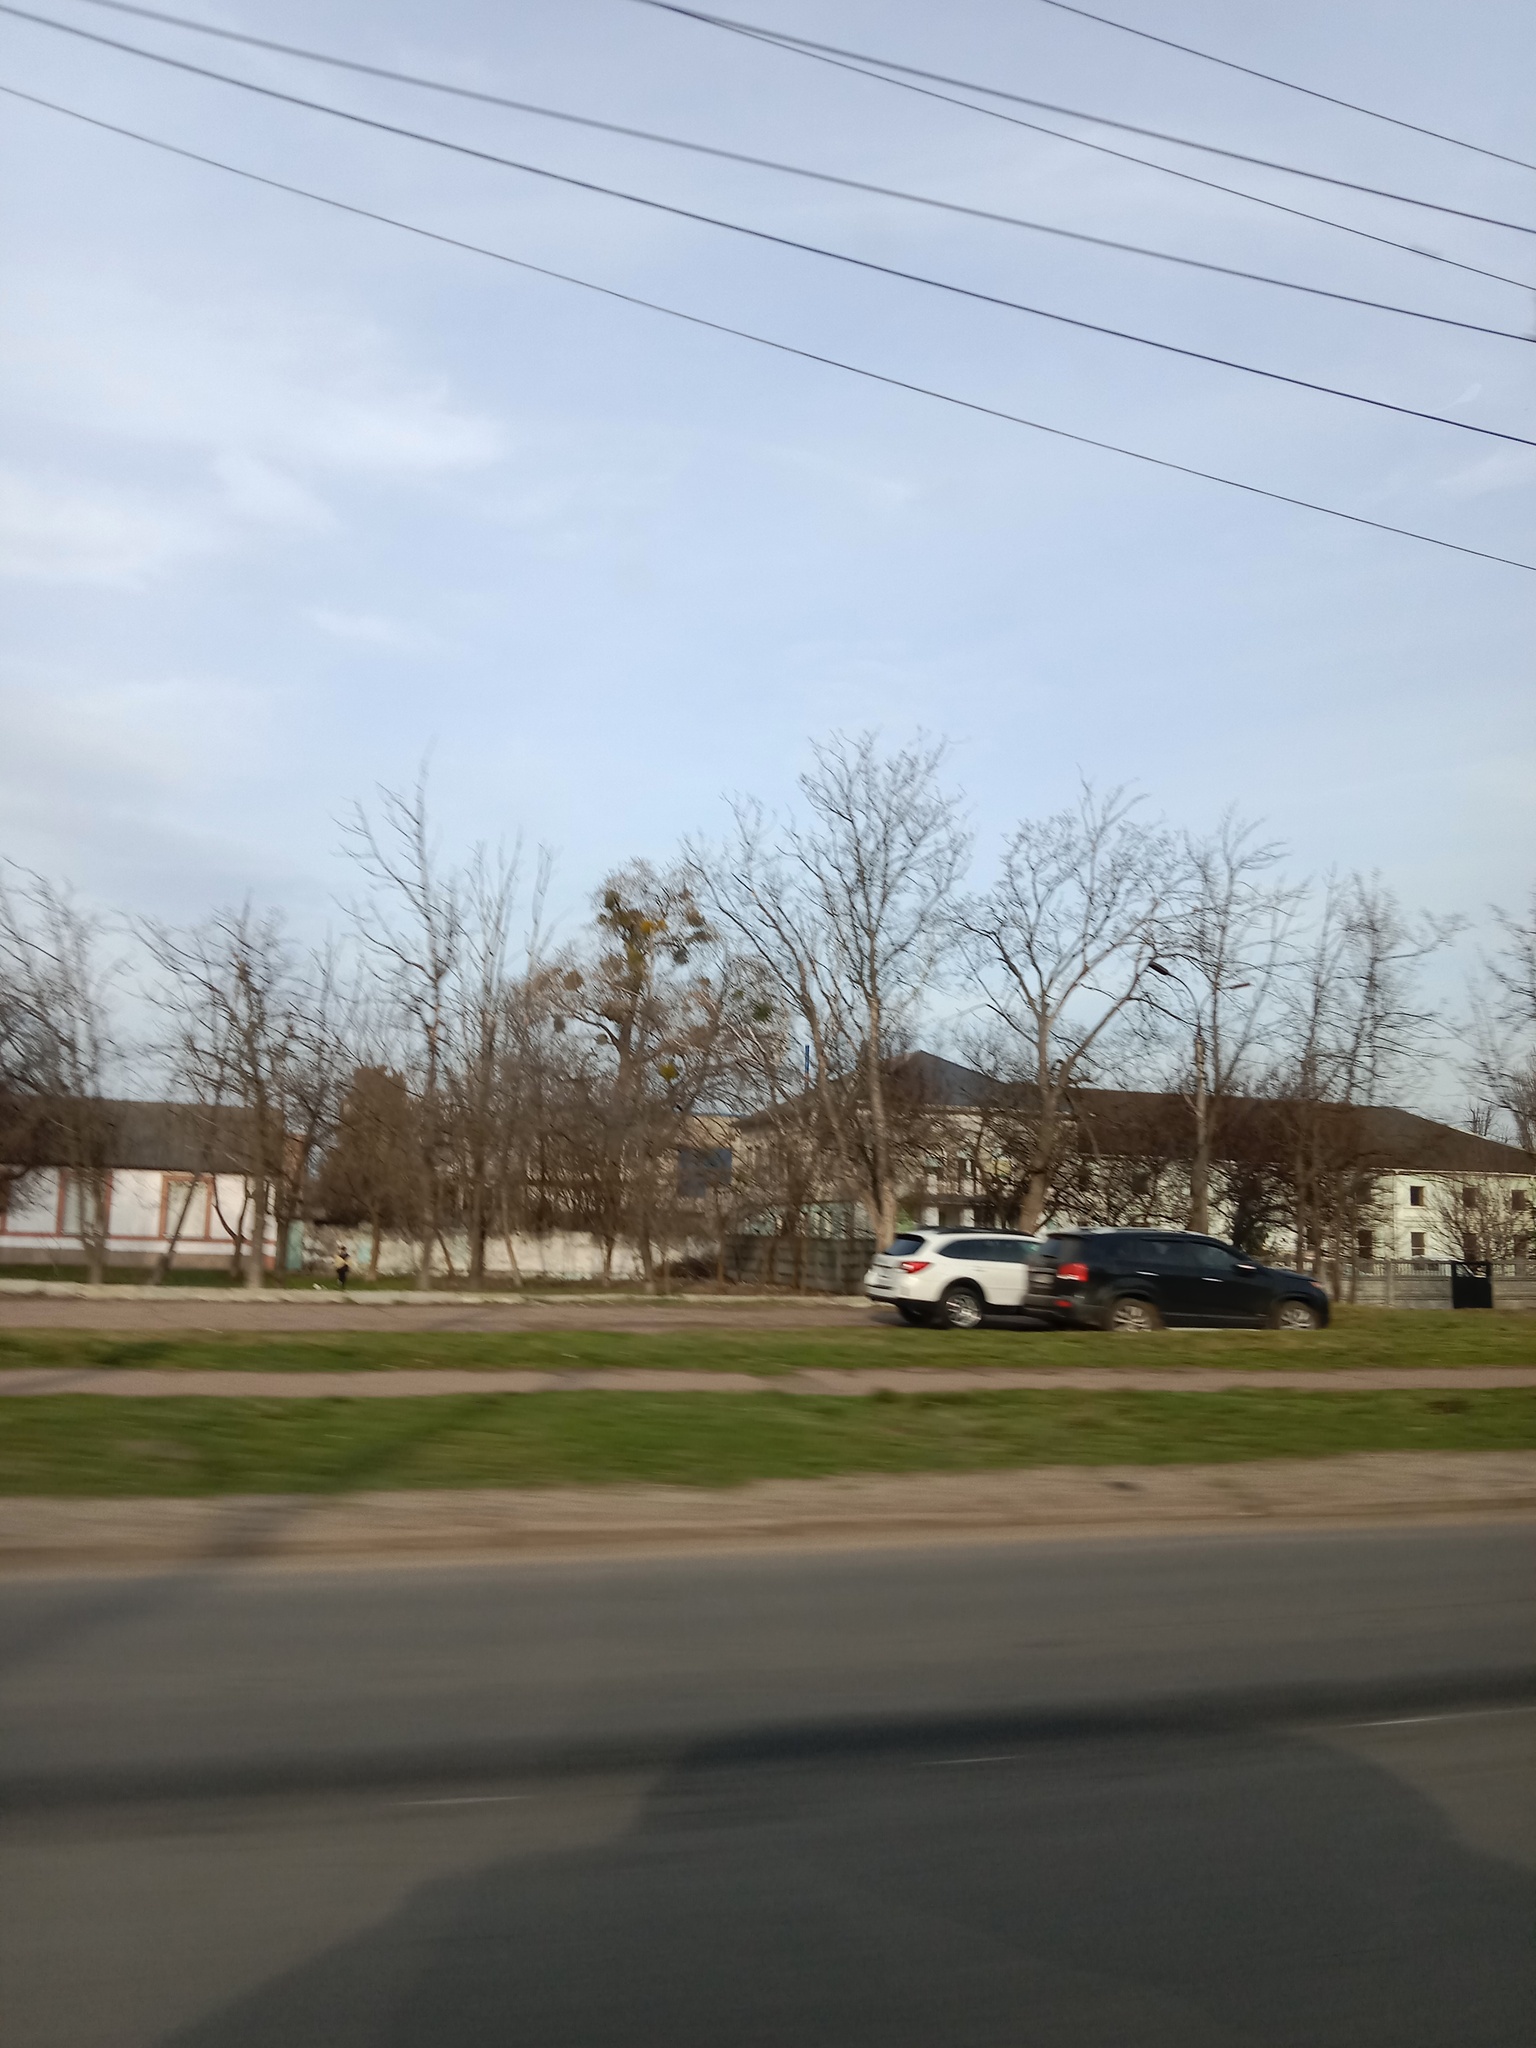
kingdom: Plantae
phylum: Tracheophyta
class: Magnoliopsida
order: Santalales
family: Viscaceae
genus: Viscum
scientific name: Viscum album
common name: Mistletoe
